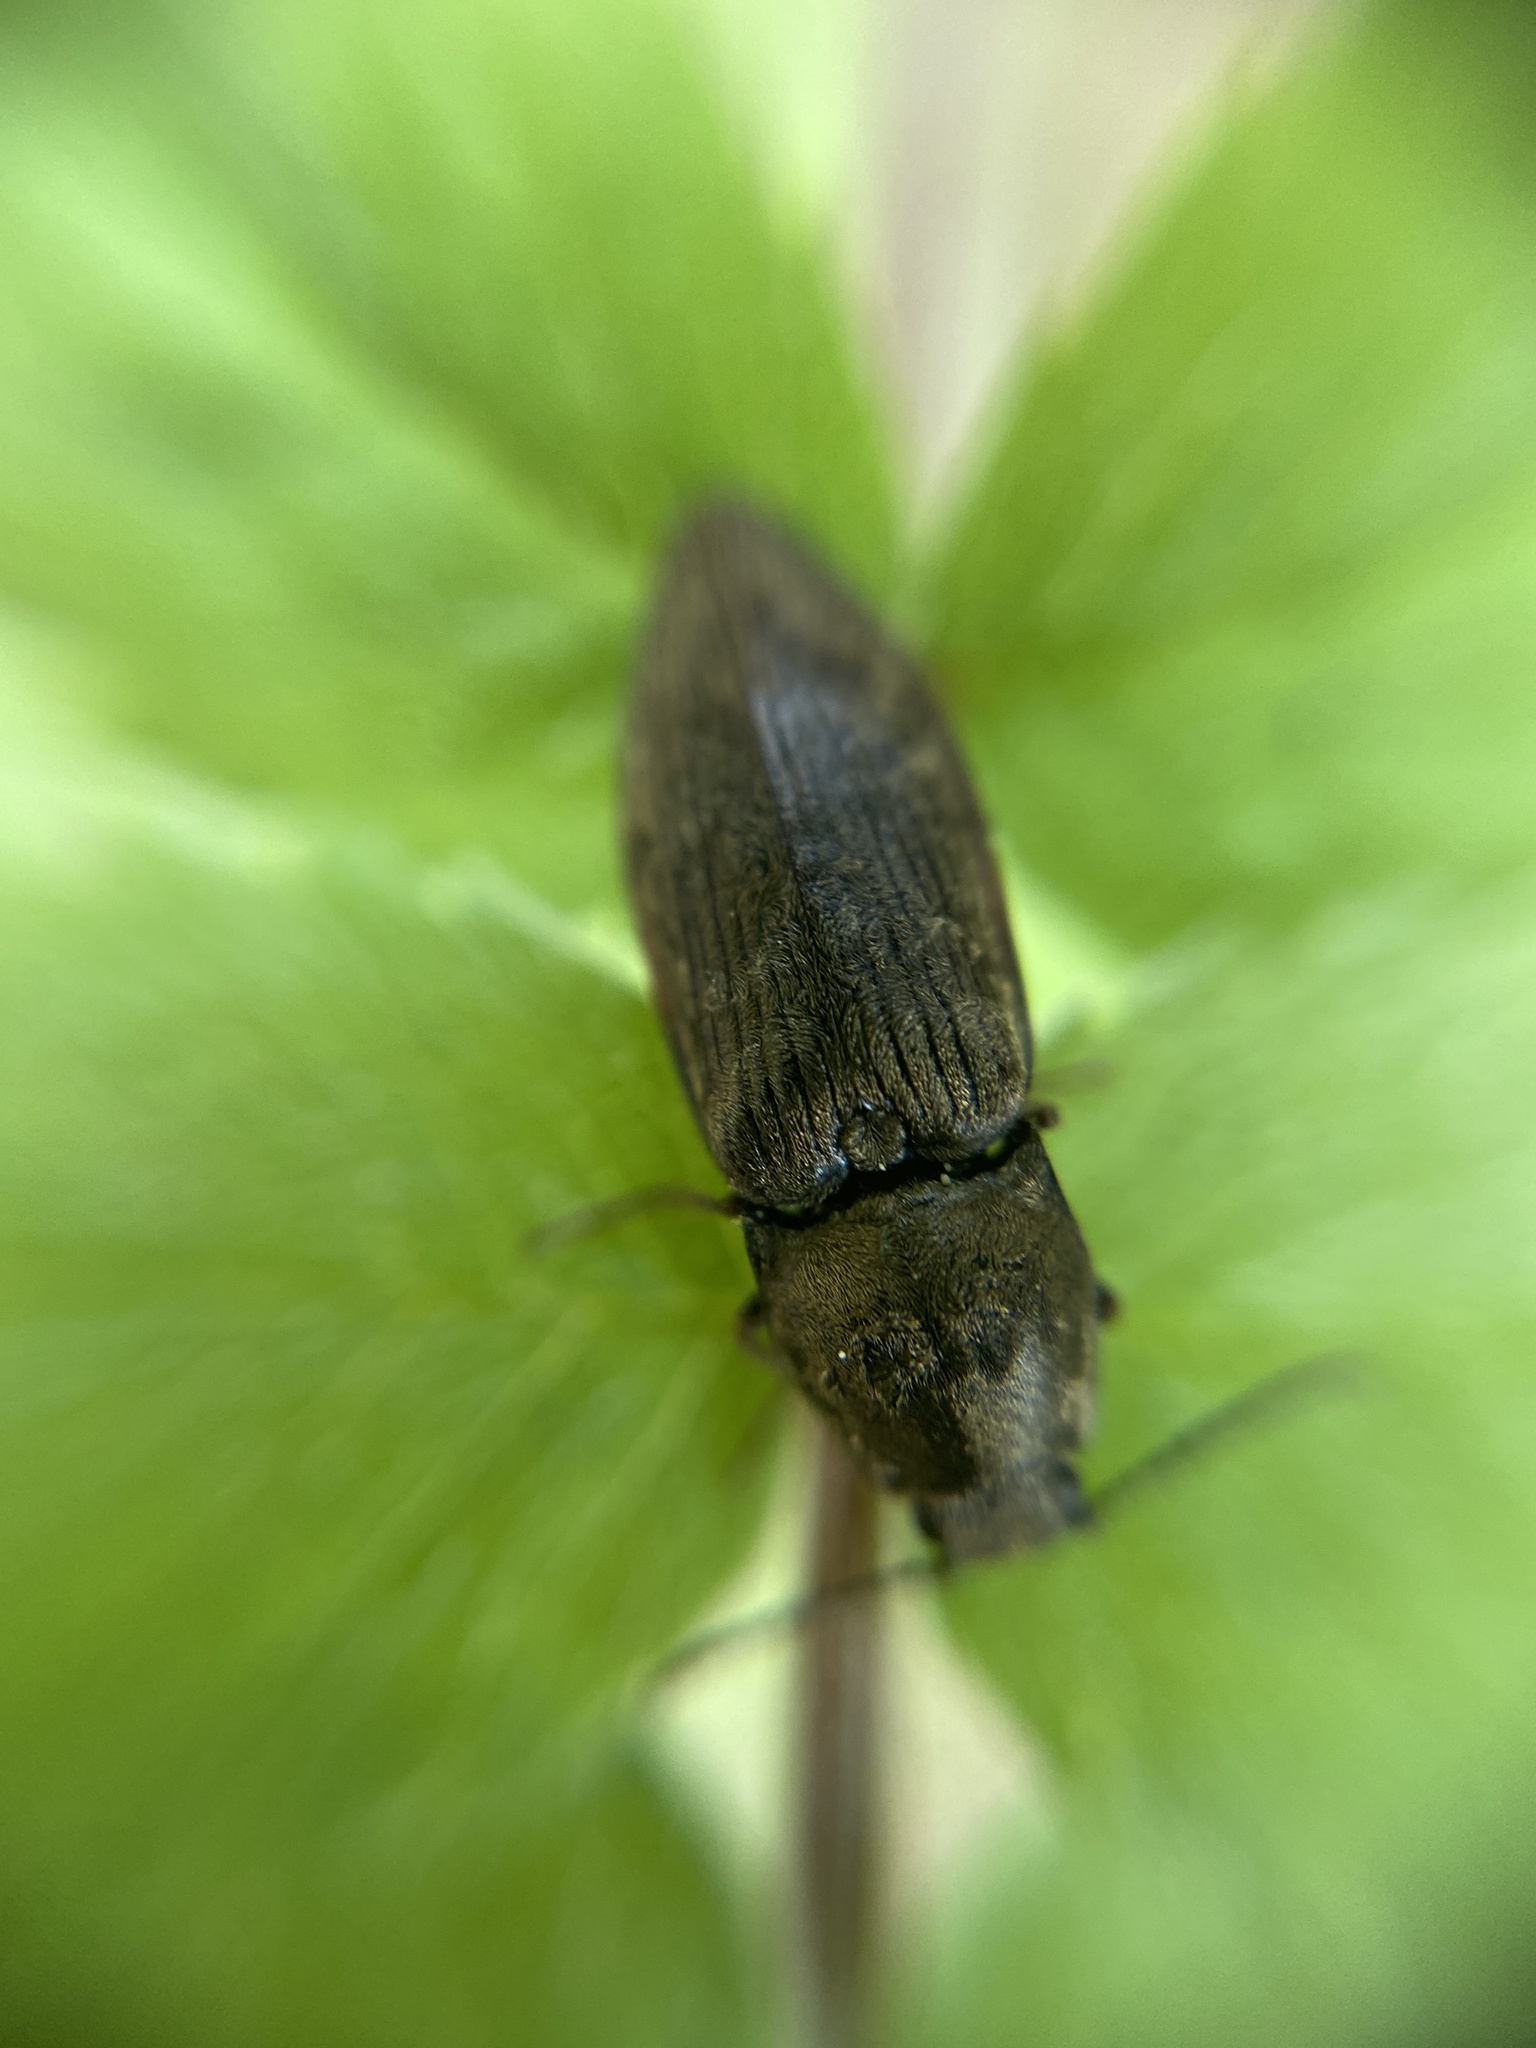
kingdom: Animalia
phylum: Arthropoda
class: Insecta
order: Coleoptera
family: Elateridae
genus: Prosternon
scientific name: Prosternon tessellatum
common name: Chequered click beetle
